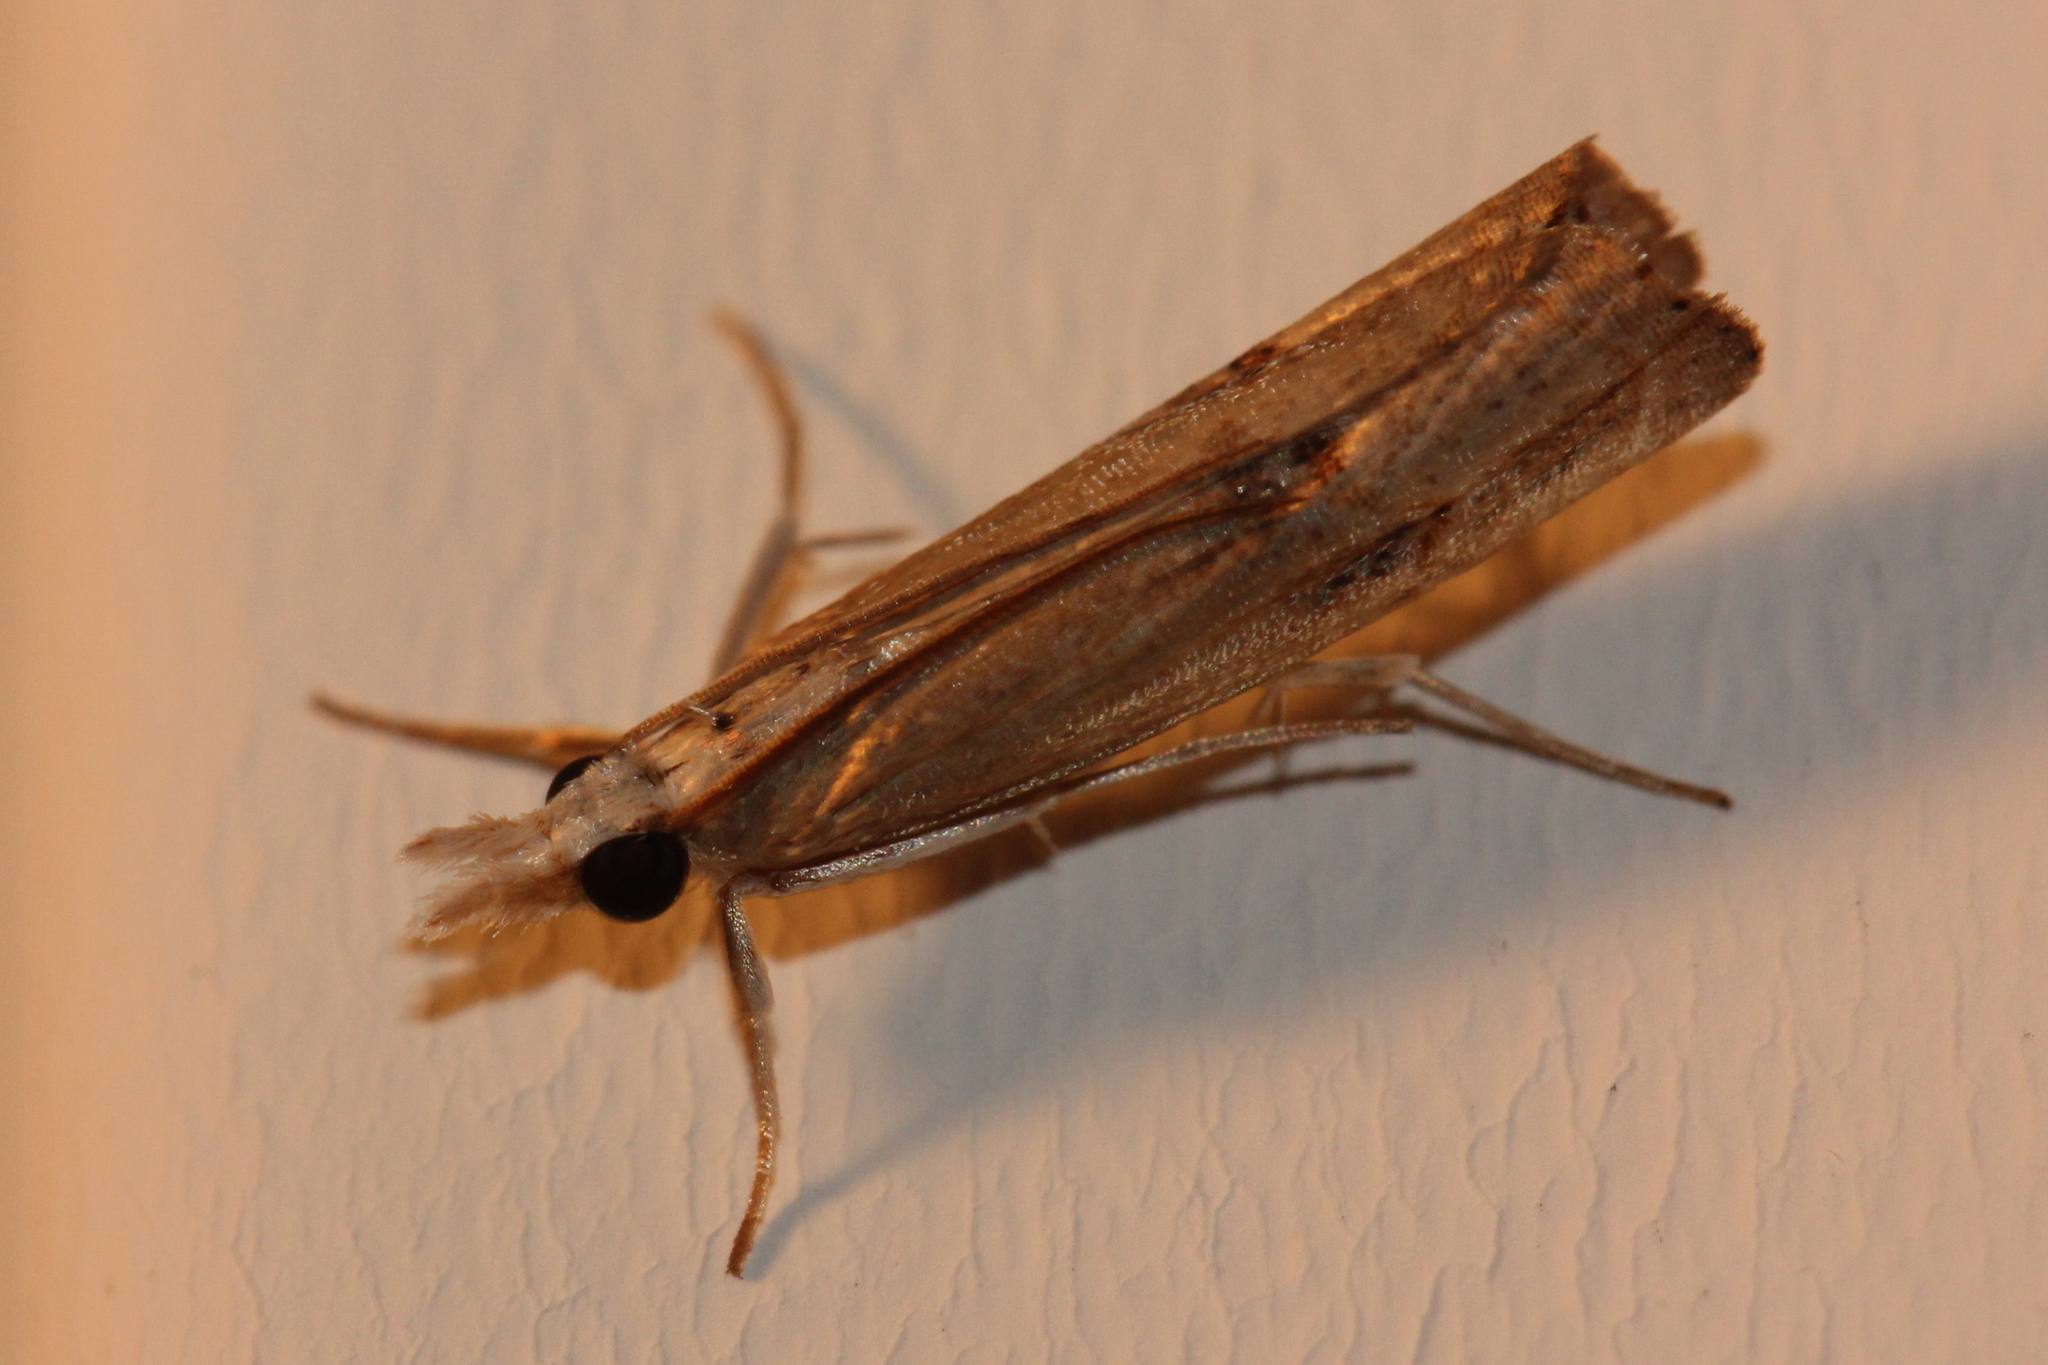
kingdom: Animalia
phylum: Arthropoda
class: Insecta
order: Lepidoptera
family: Crambidae
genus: Parapediasia
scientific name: Parapediasia teterellus
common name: Bluegrass webworm moth
